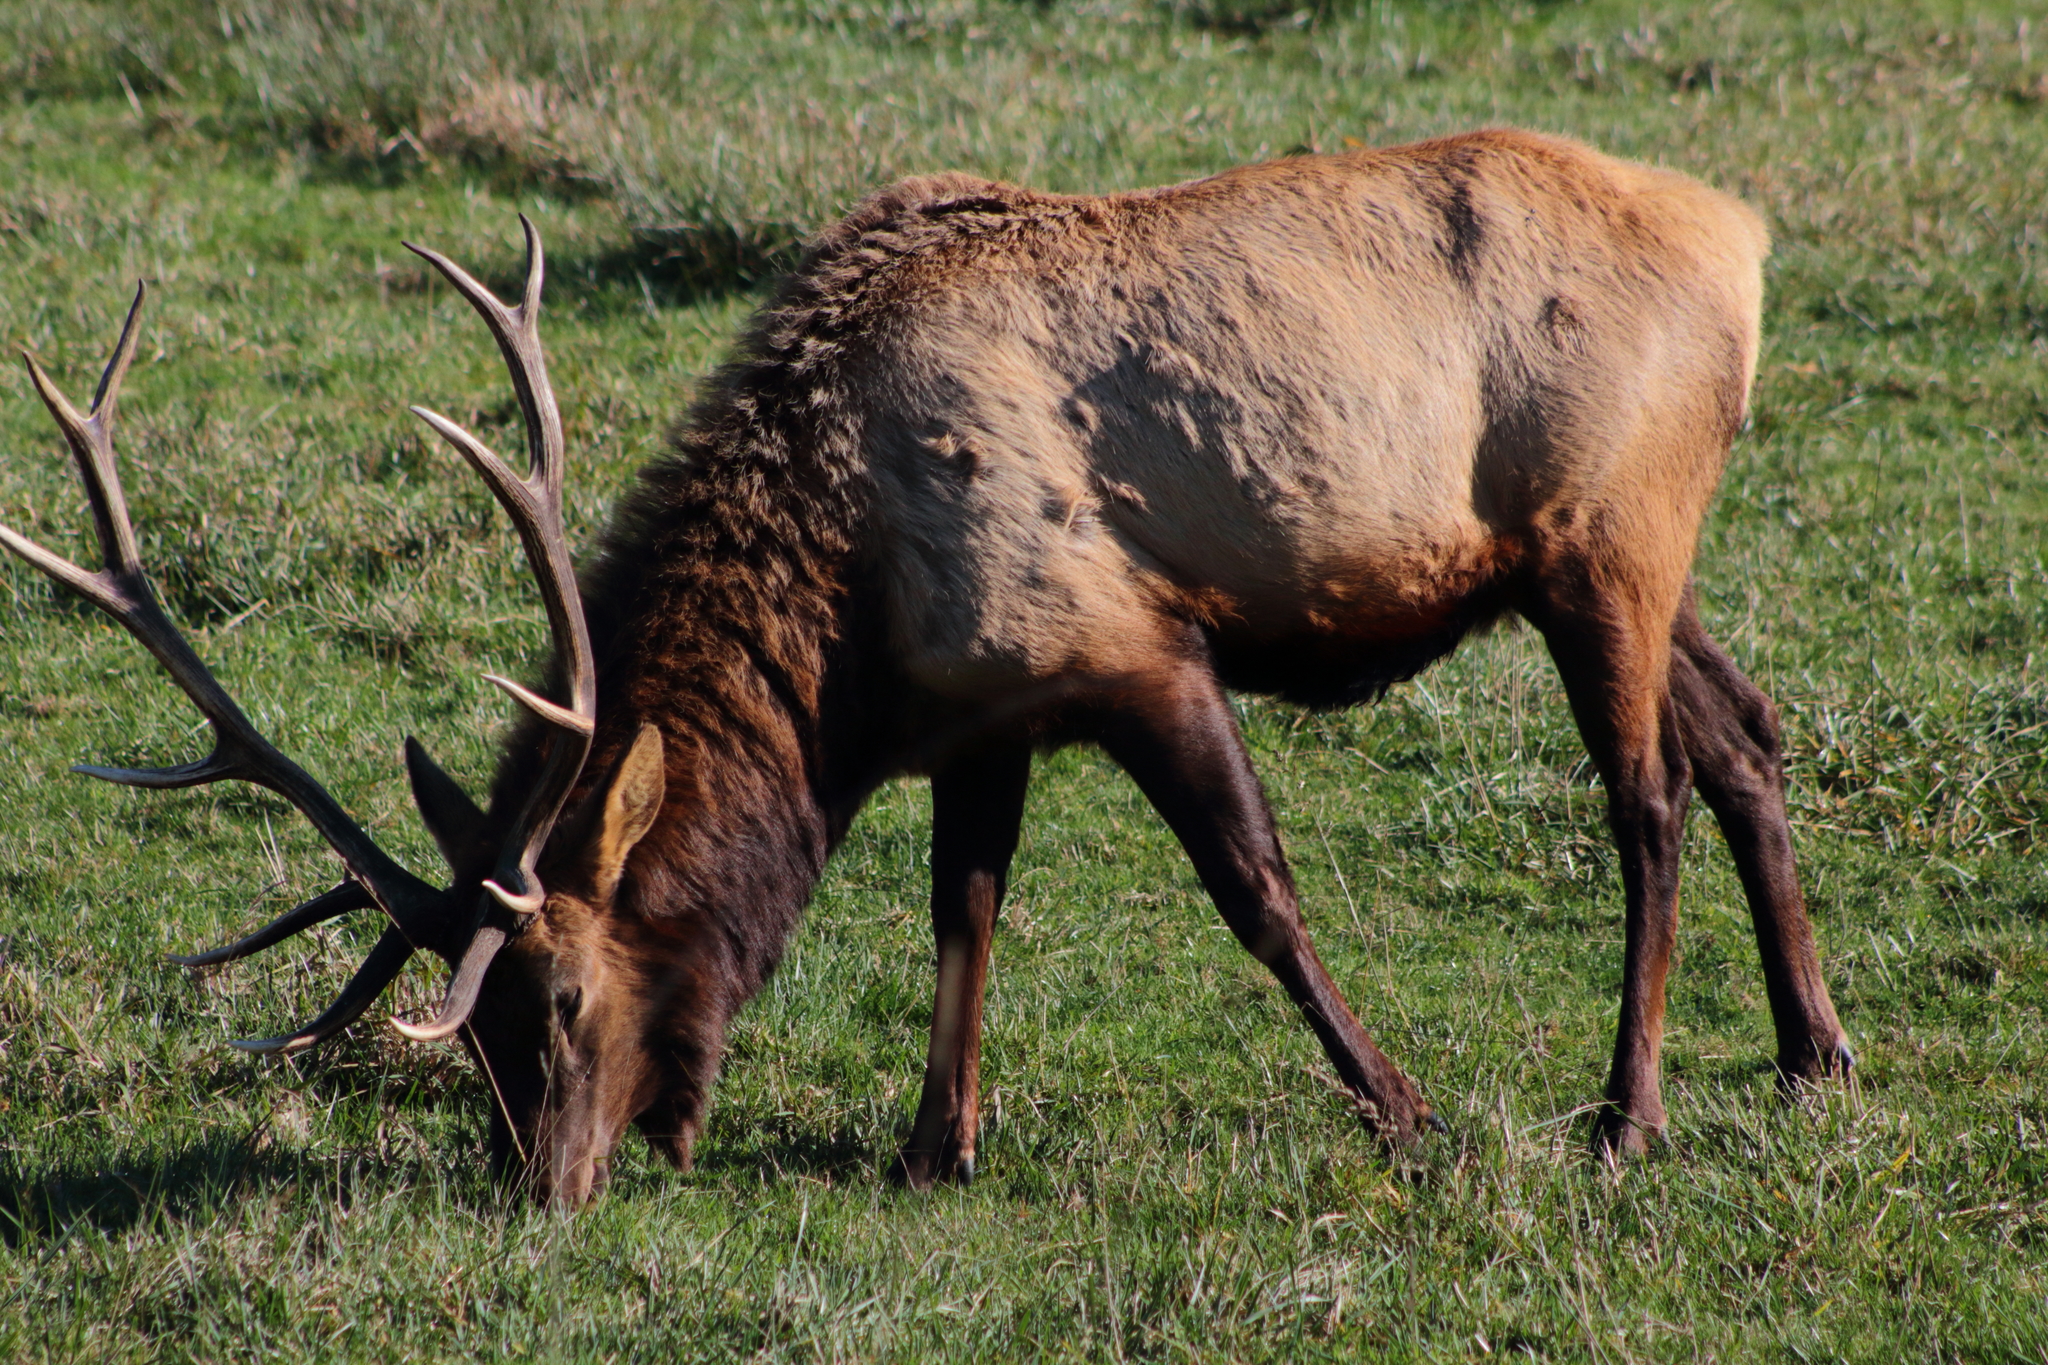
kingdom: Animalia
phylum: Chordata
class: Mammalia
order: Artiodactyla
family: Cervidae
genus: Cervus
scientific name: Cervus elaphus
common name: Red deer
